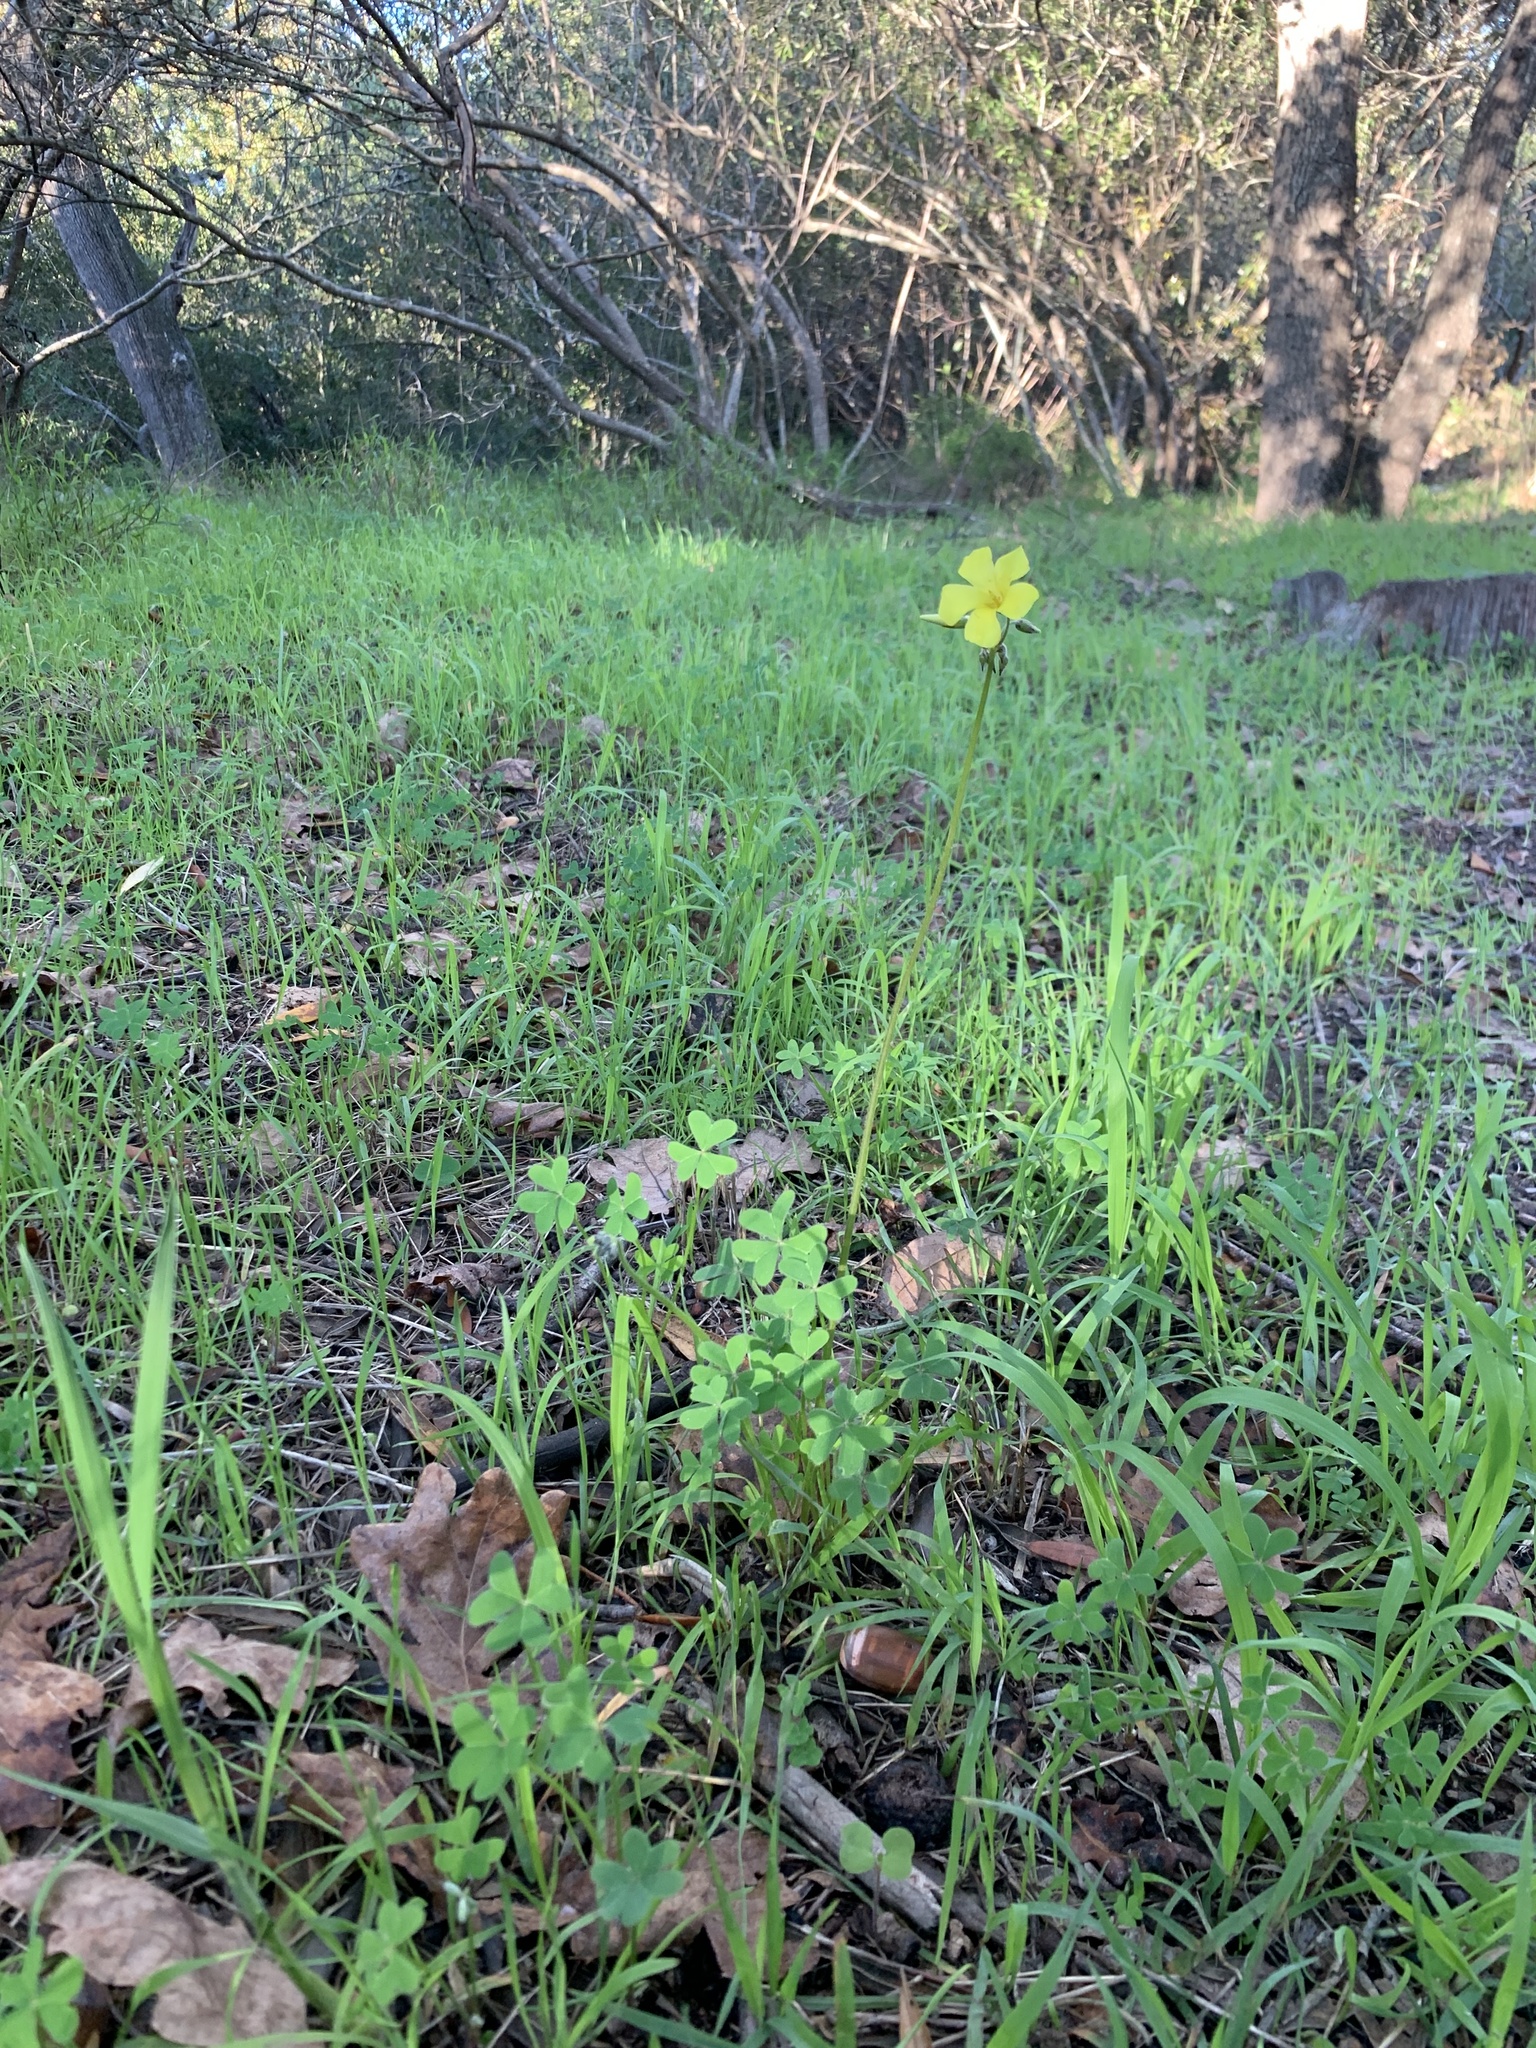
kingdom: Plantae
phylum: Tracheophyta
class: Magnoliopsida
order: Oxalidales
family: Oxalidaceae
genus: Oxalis
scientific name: Oxalis pes-caprae
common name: Bermuda-buttercup
